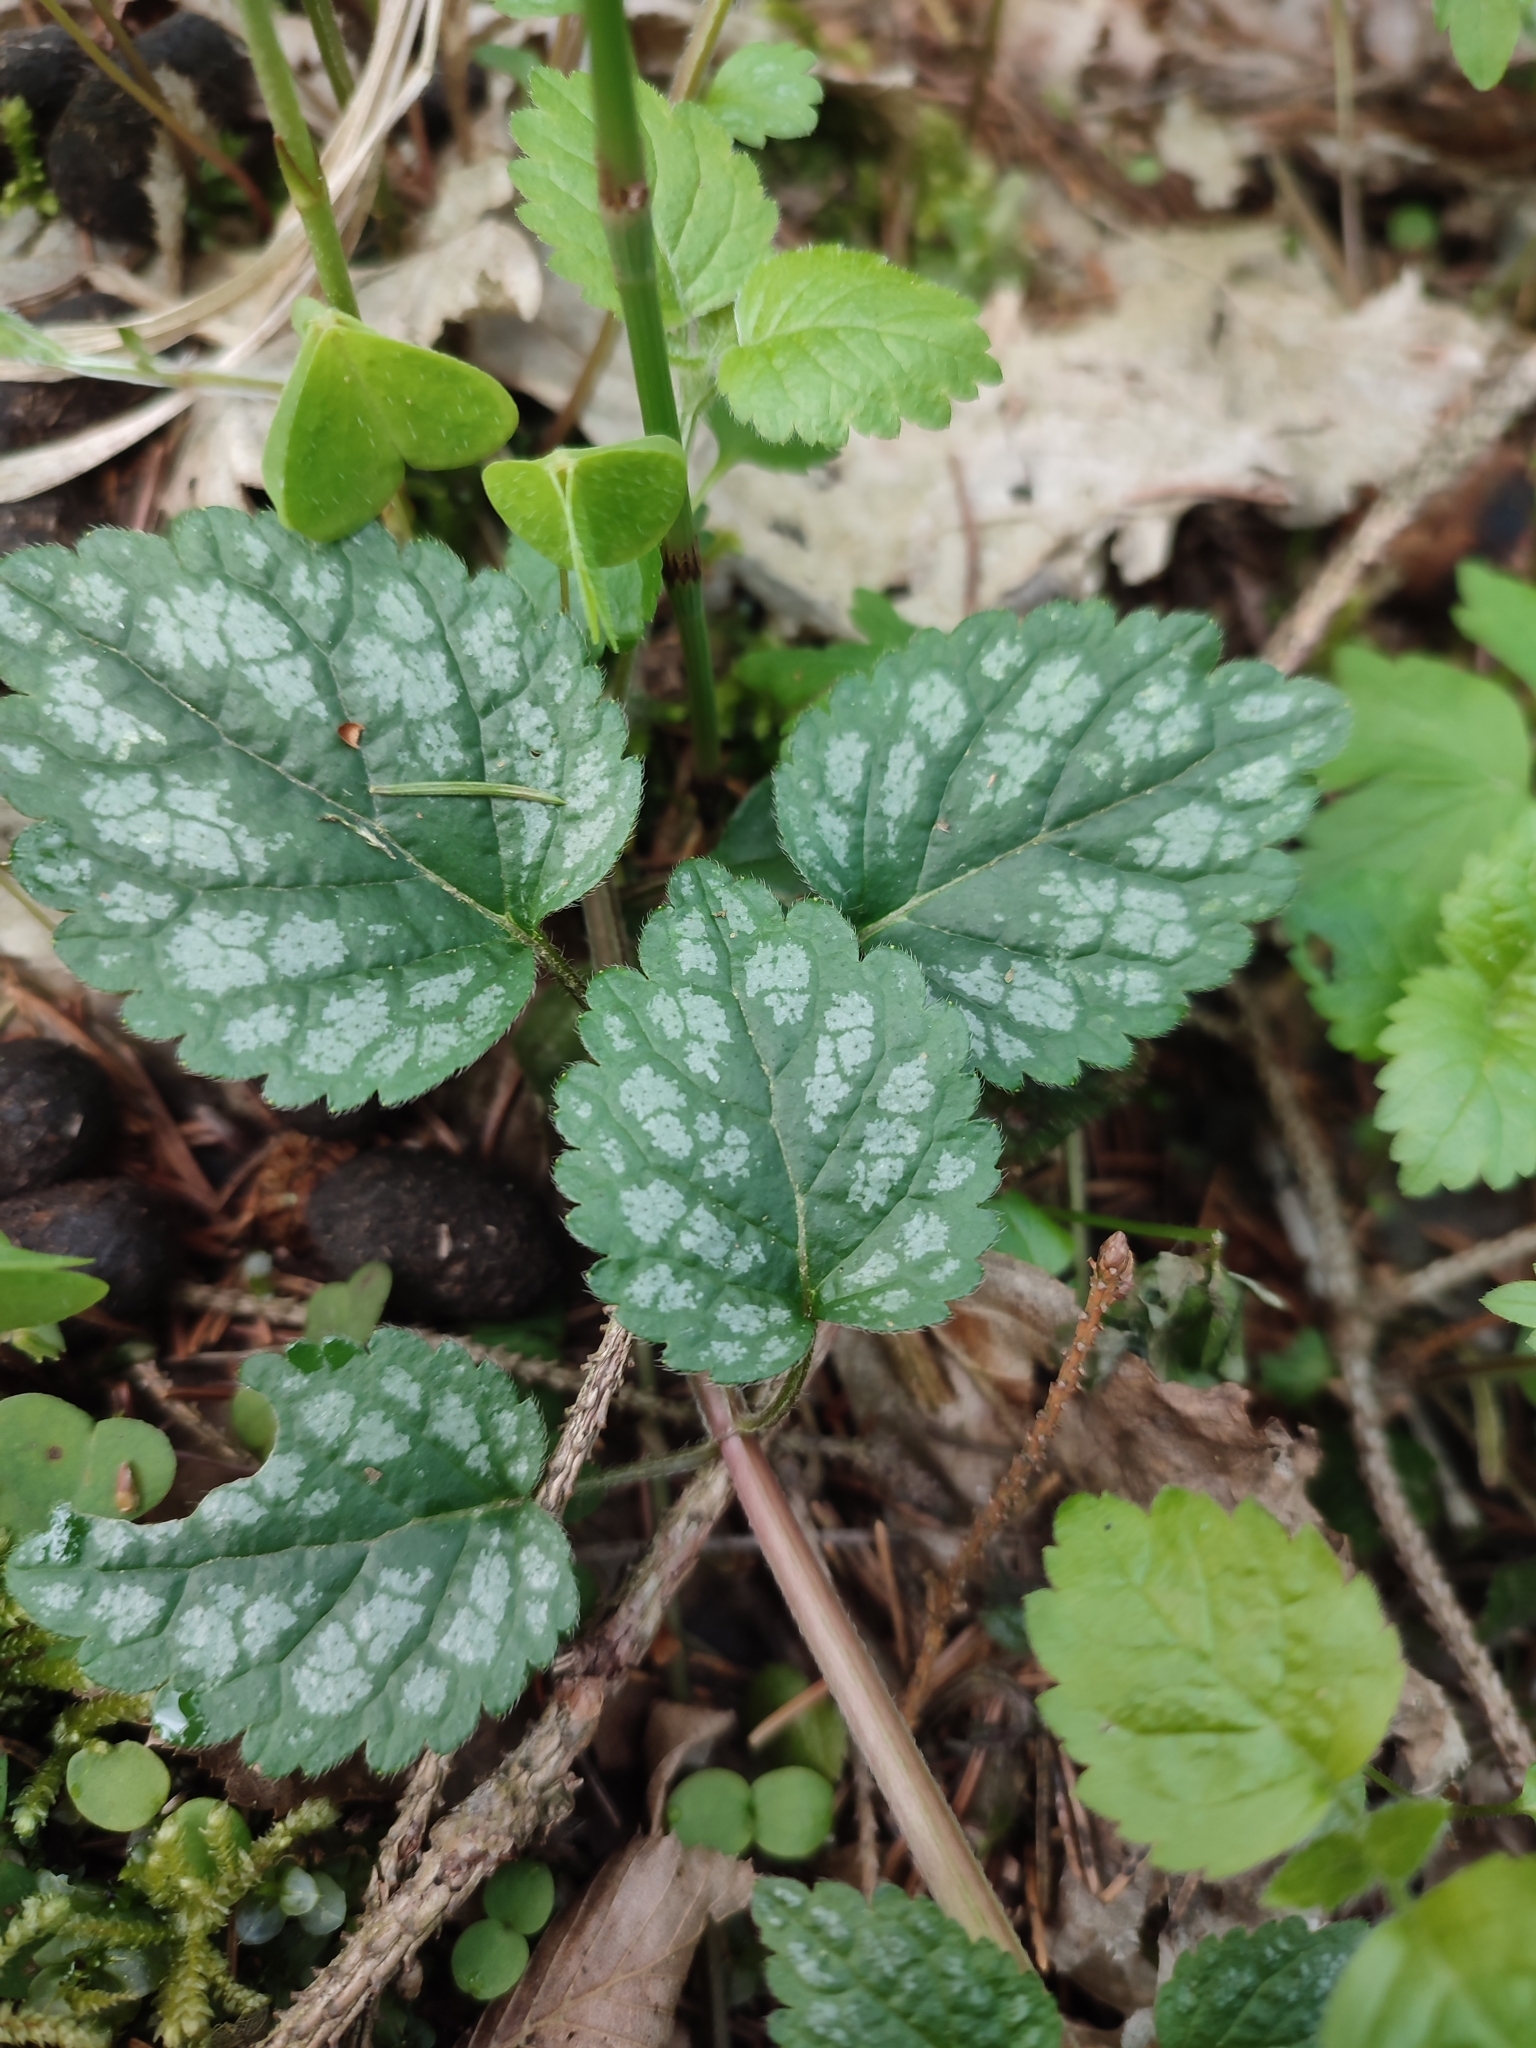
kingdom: Plantae
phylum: Tracheophyta
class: Magnoliopsida
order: Lamiales
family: Lamiaceae
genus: Lamium
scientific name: Lamium galeobdolon
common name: Yellow archangel
